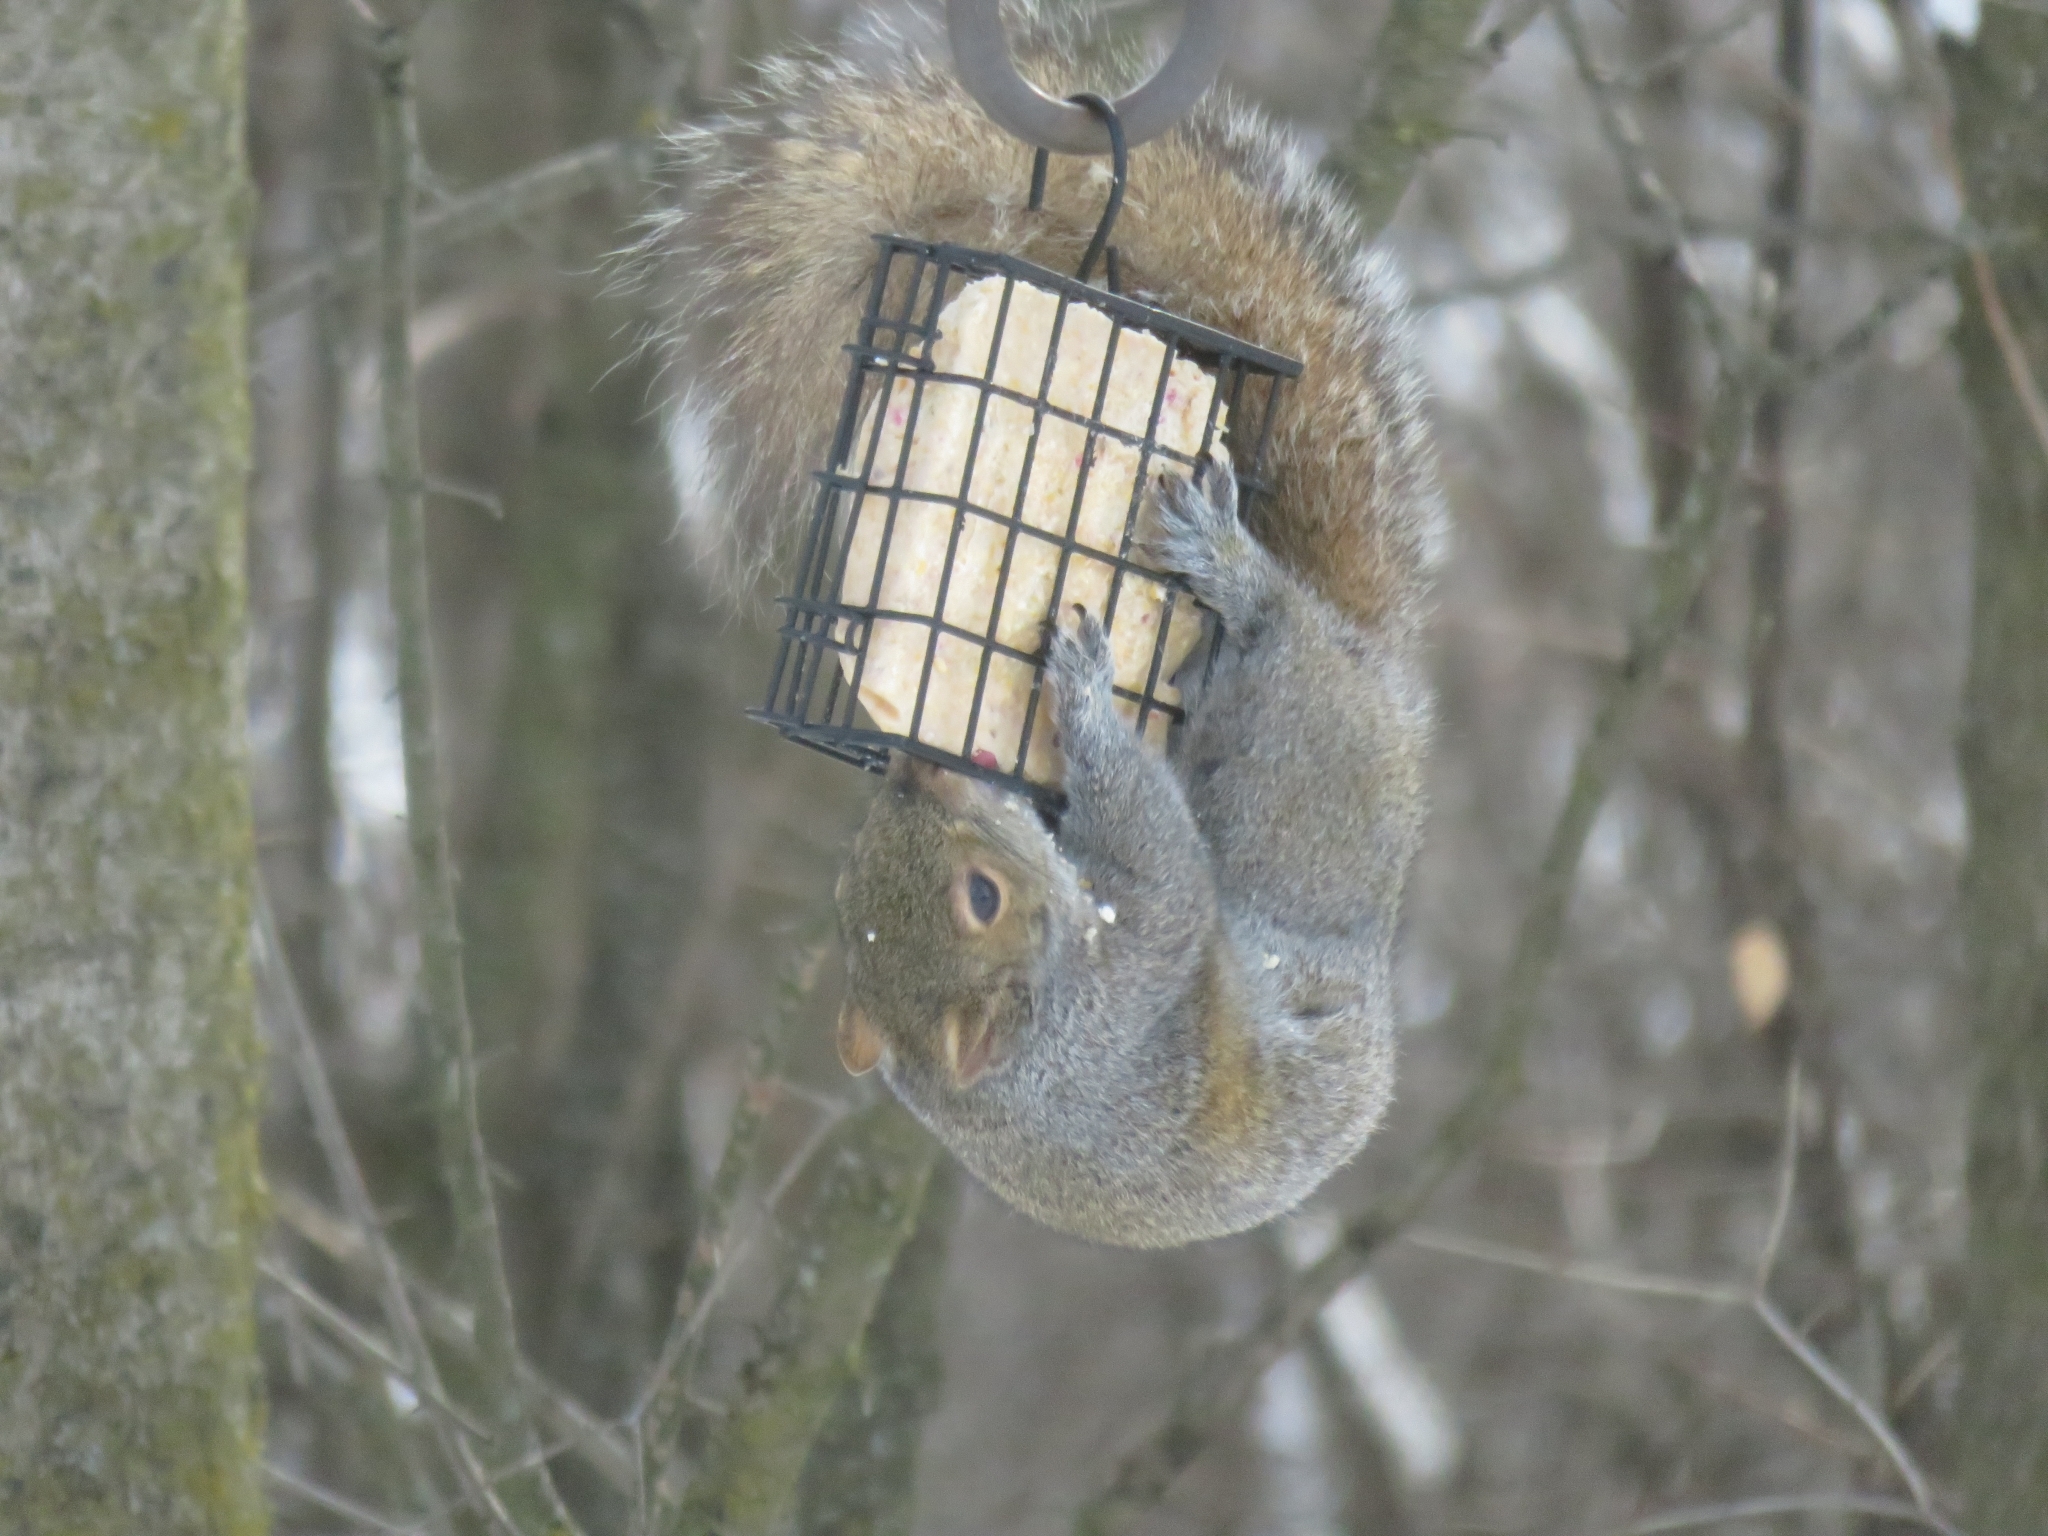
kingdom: Animalia
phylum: Chordata
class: Mammalia
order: Rodentia
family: Sciuridae
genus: Sciurus
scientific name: Sciurus carolinensis
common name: Eastern gray squirrel
